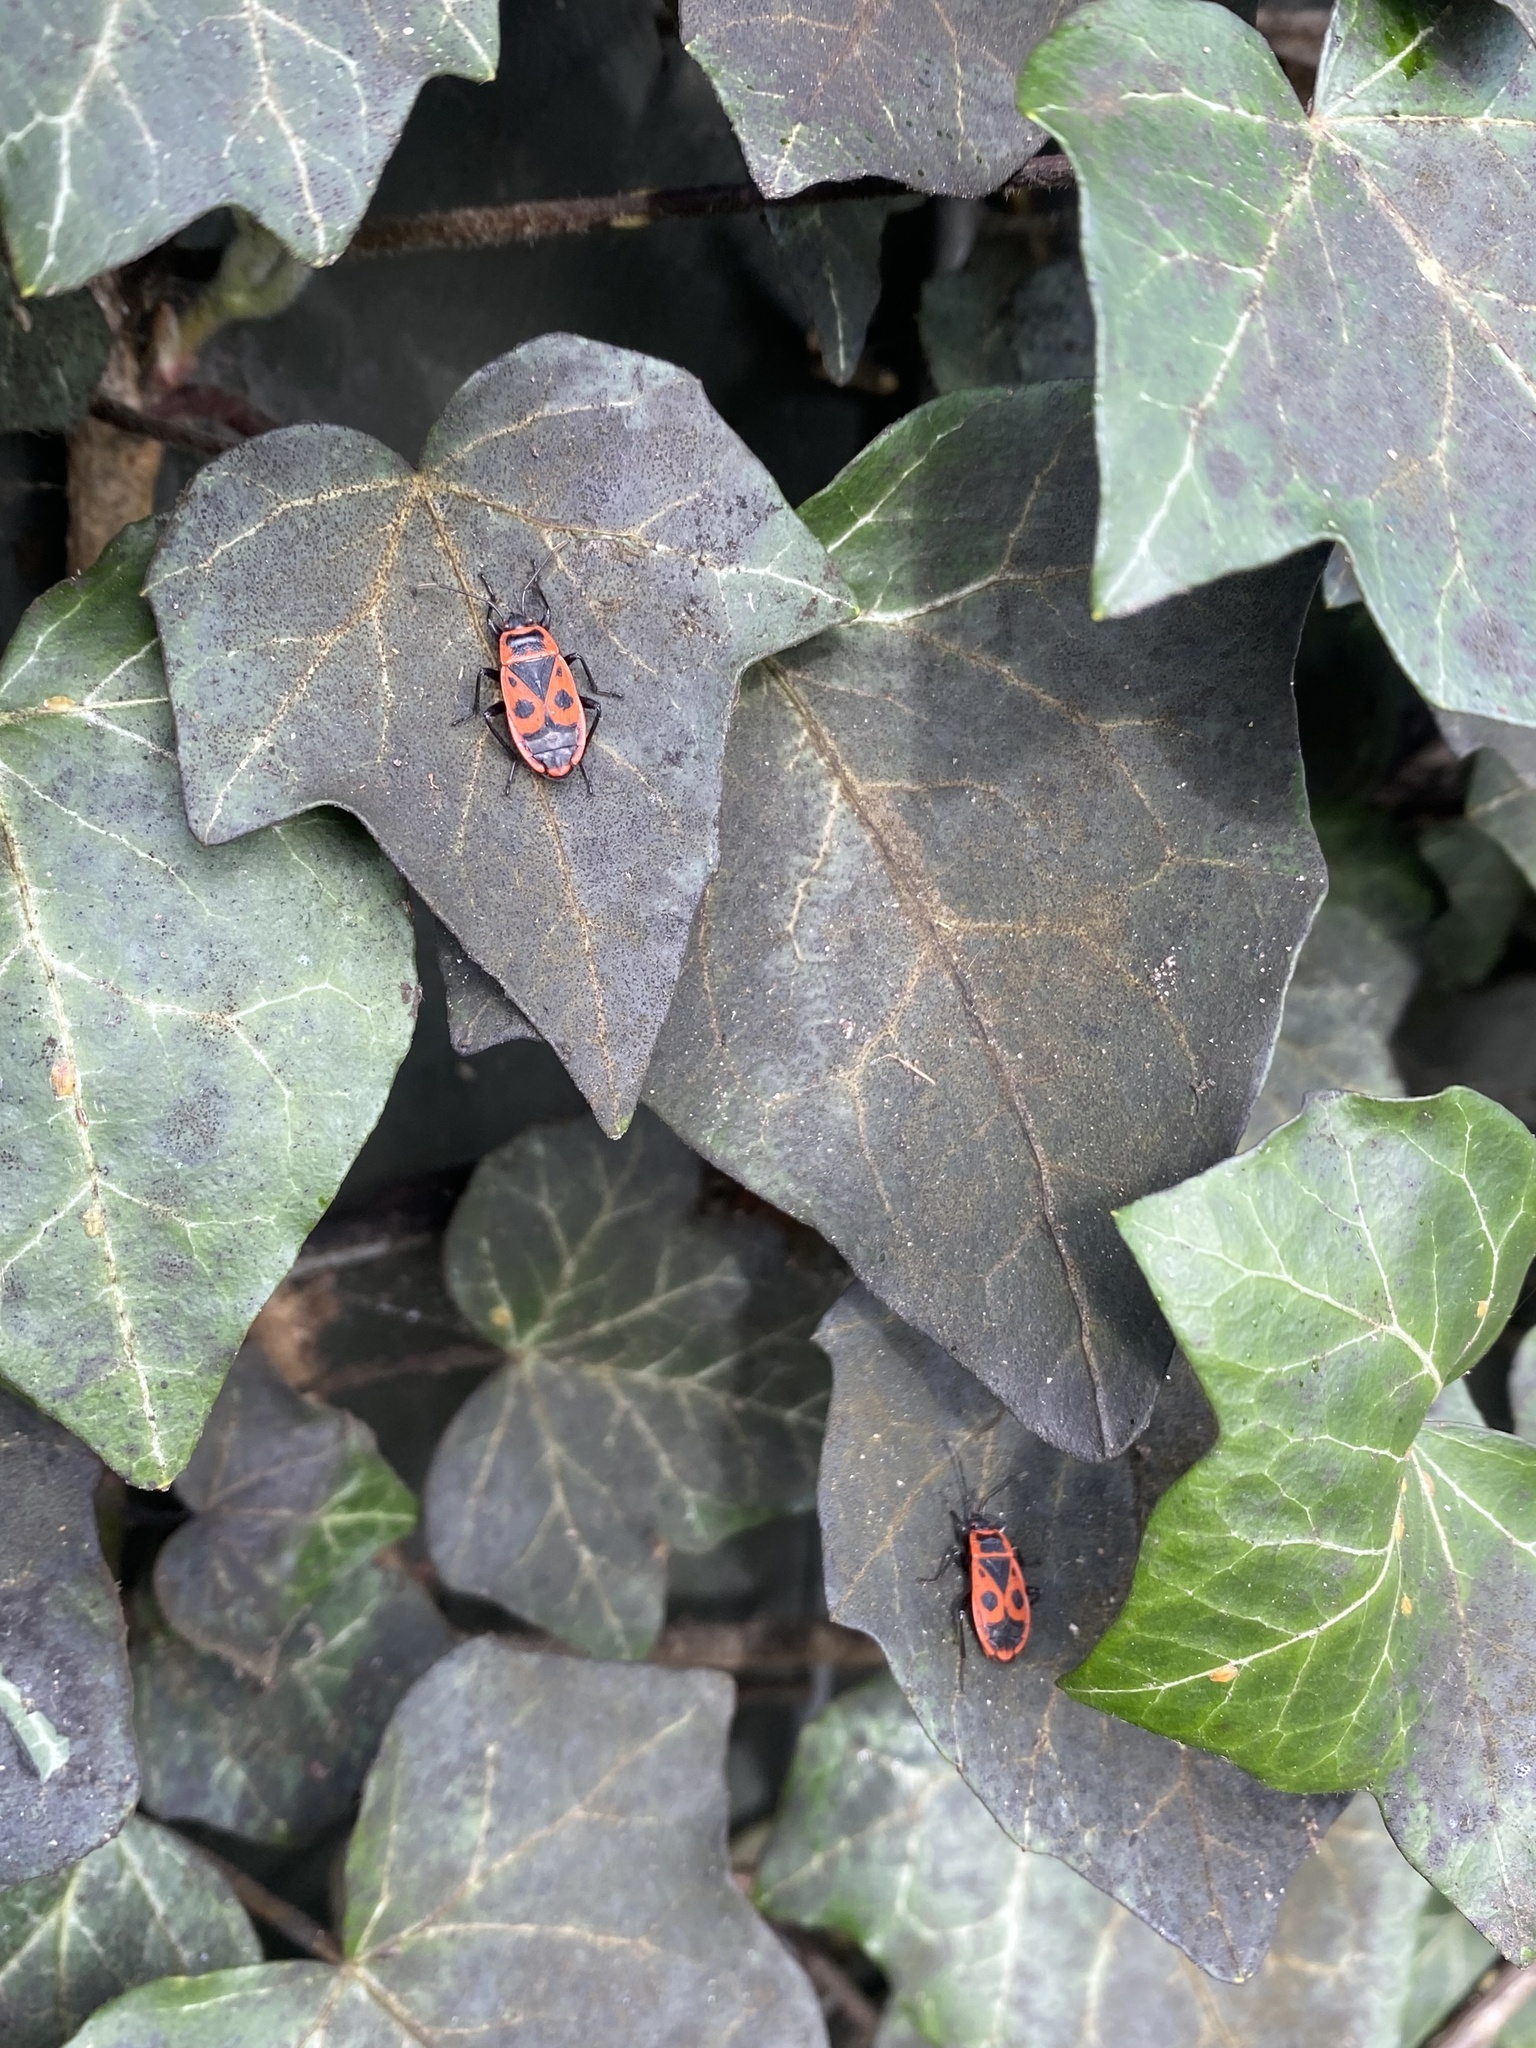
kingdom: Animalia
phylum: Arthropoda
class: Insecta
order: Hemiptera
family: Pyrrhocoridae
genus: Pyrrhocoris
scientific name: Pyrrhocoris apterus
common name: Firebug
